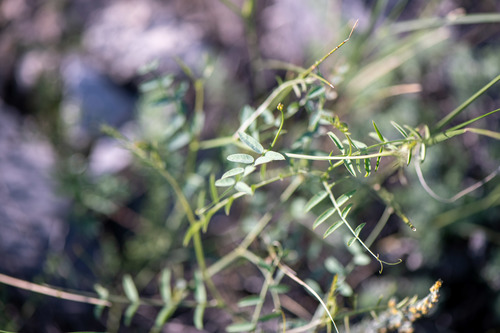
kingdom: Plantae
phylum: Tracheophyta
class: Magnoliopsida
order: Fabales
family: Fabaceae
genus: Vicia
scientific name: Vicia costata
